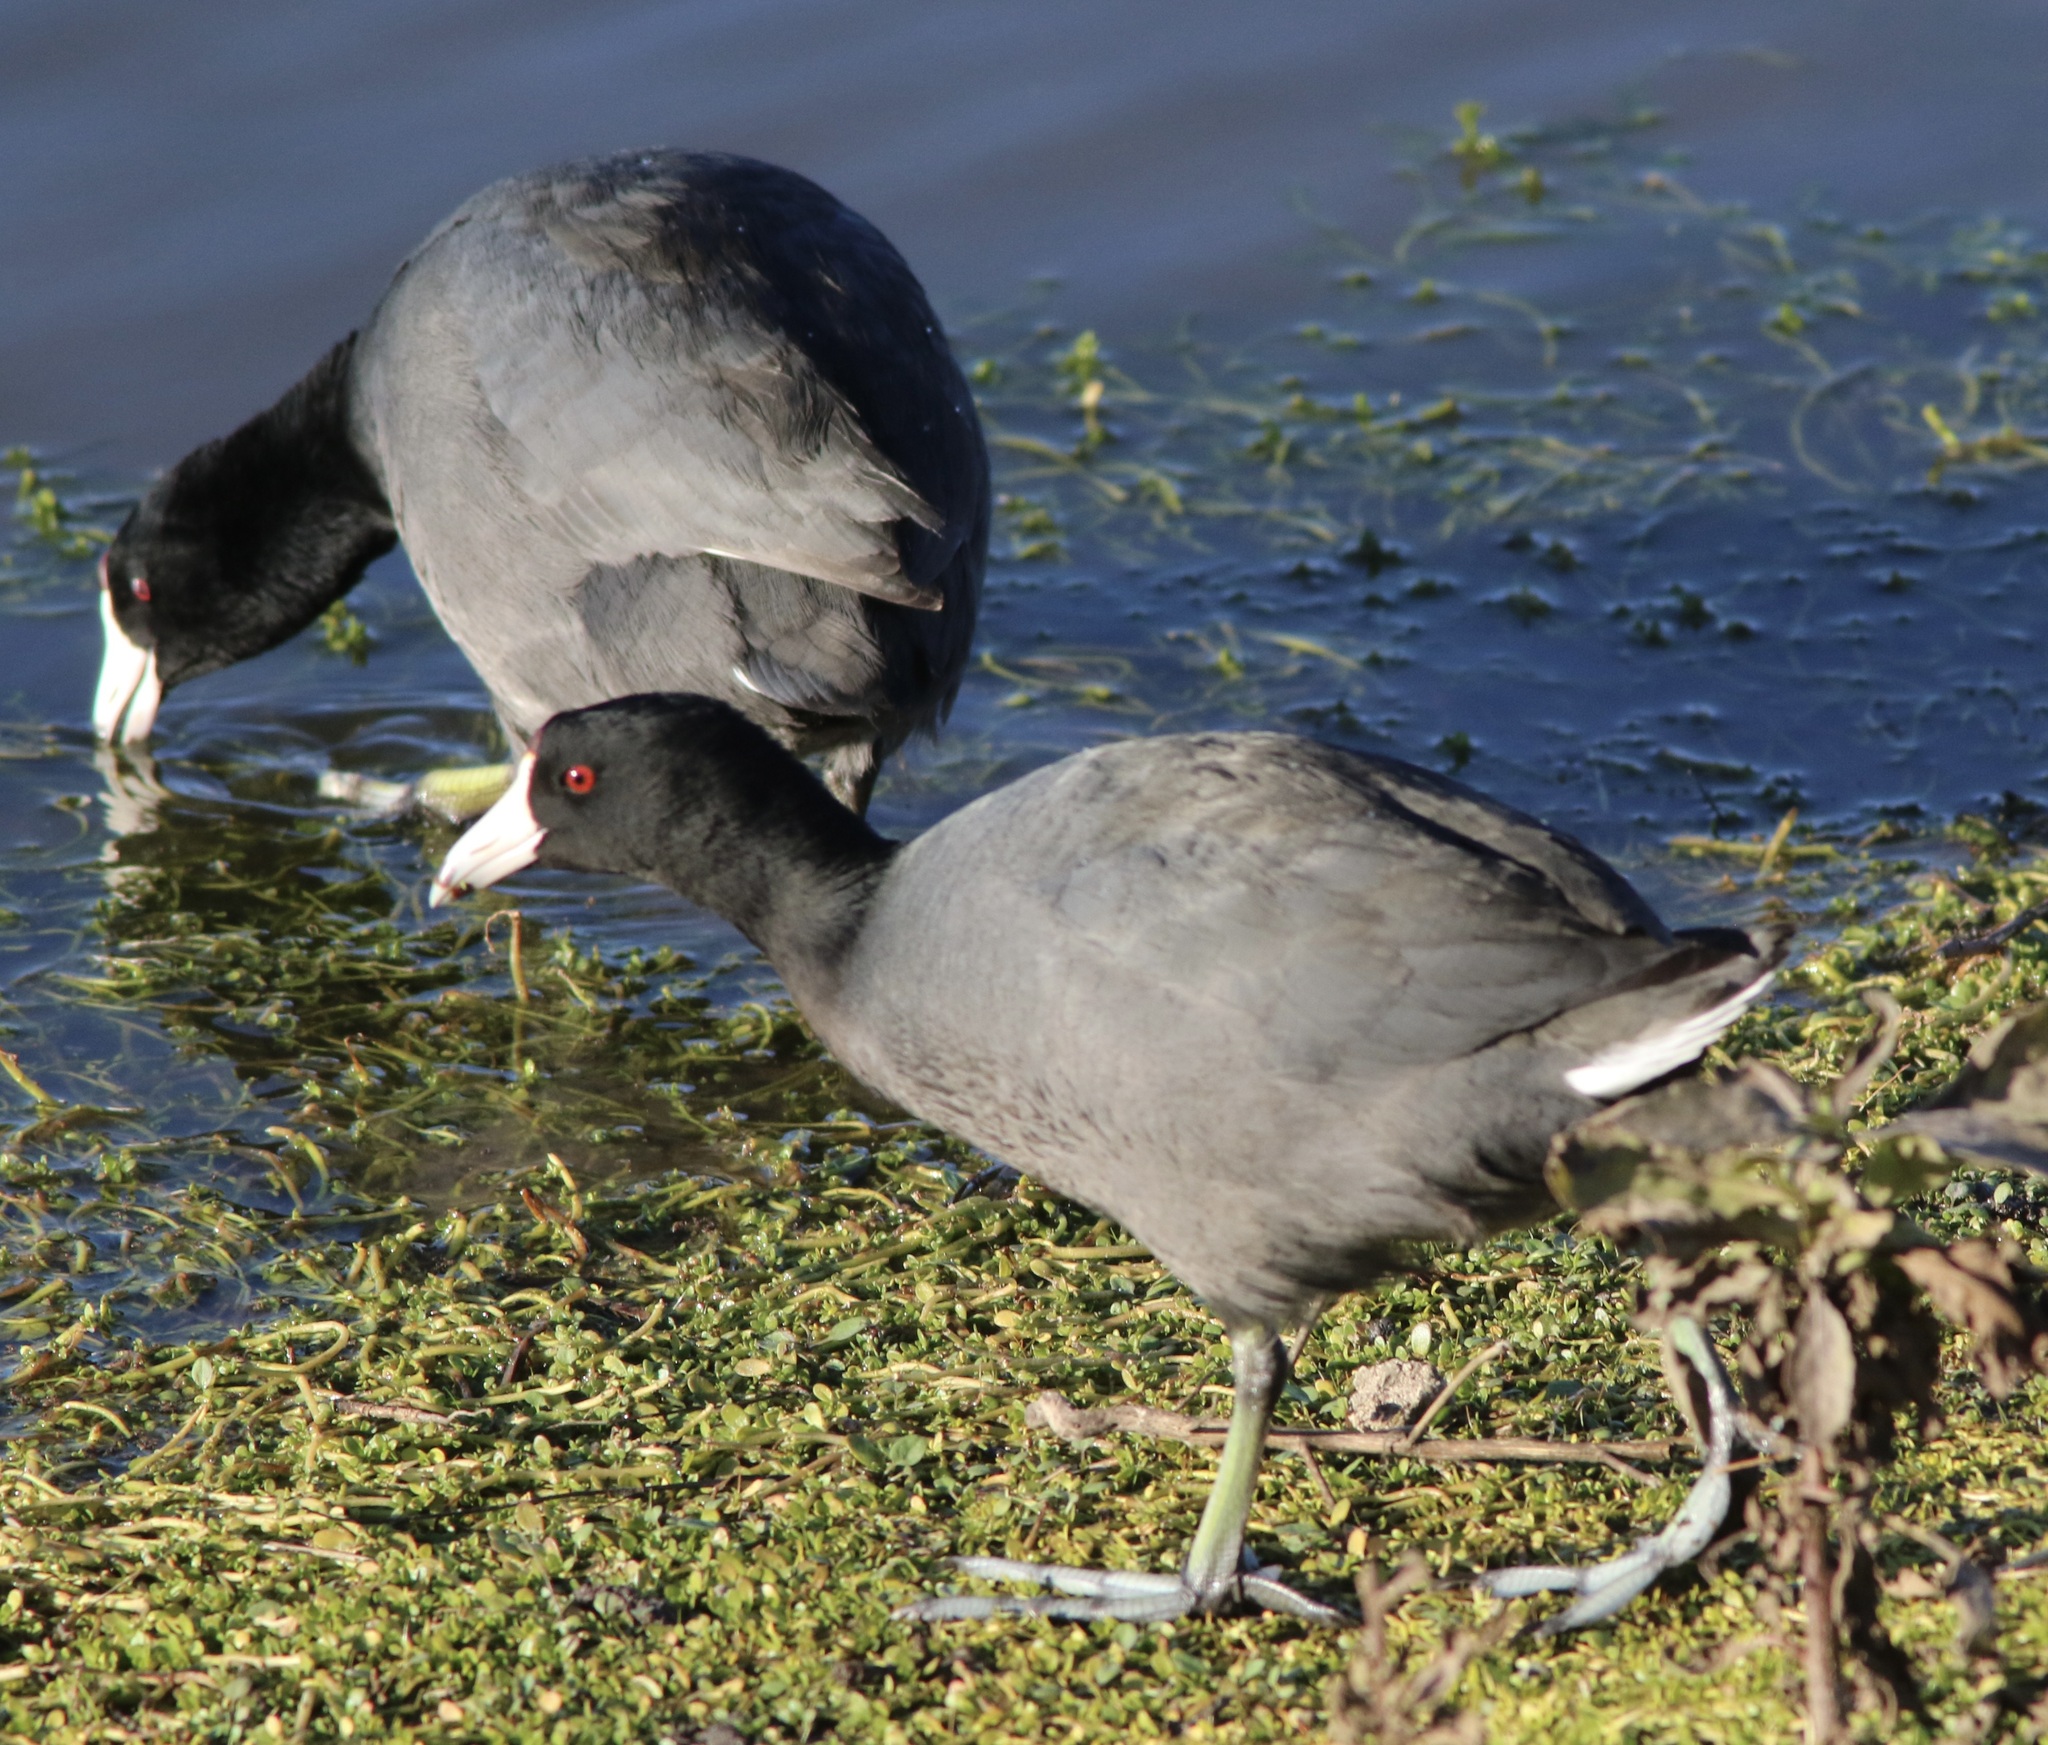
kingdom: Animalia
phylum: Chordata
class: Aves
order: Gruiformes
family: Rallidae
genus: Fulica
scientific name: Fulica americana
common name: American coot
